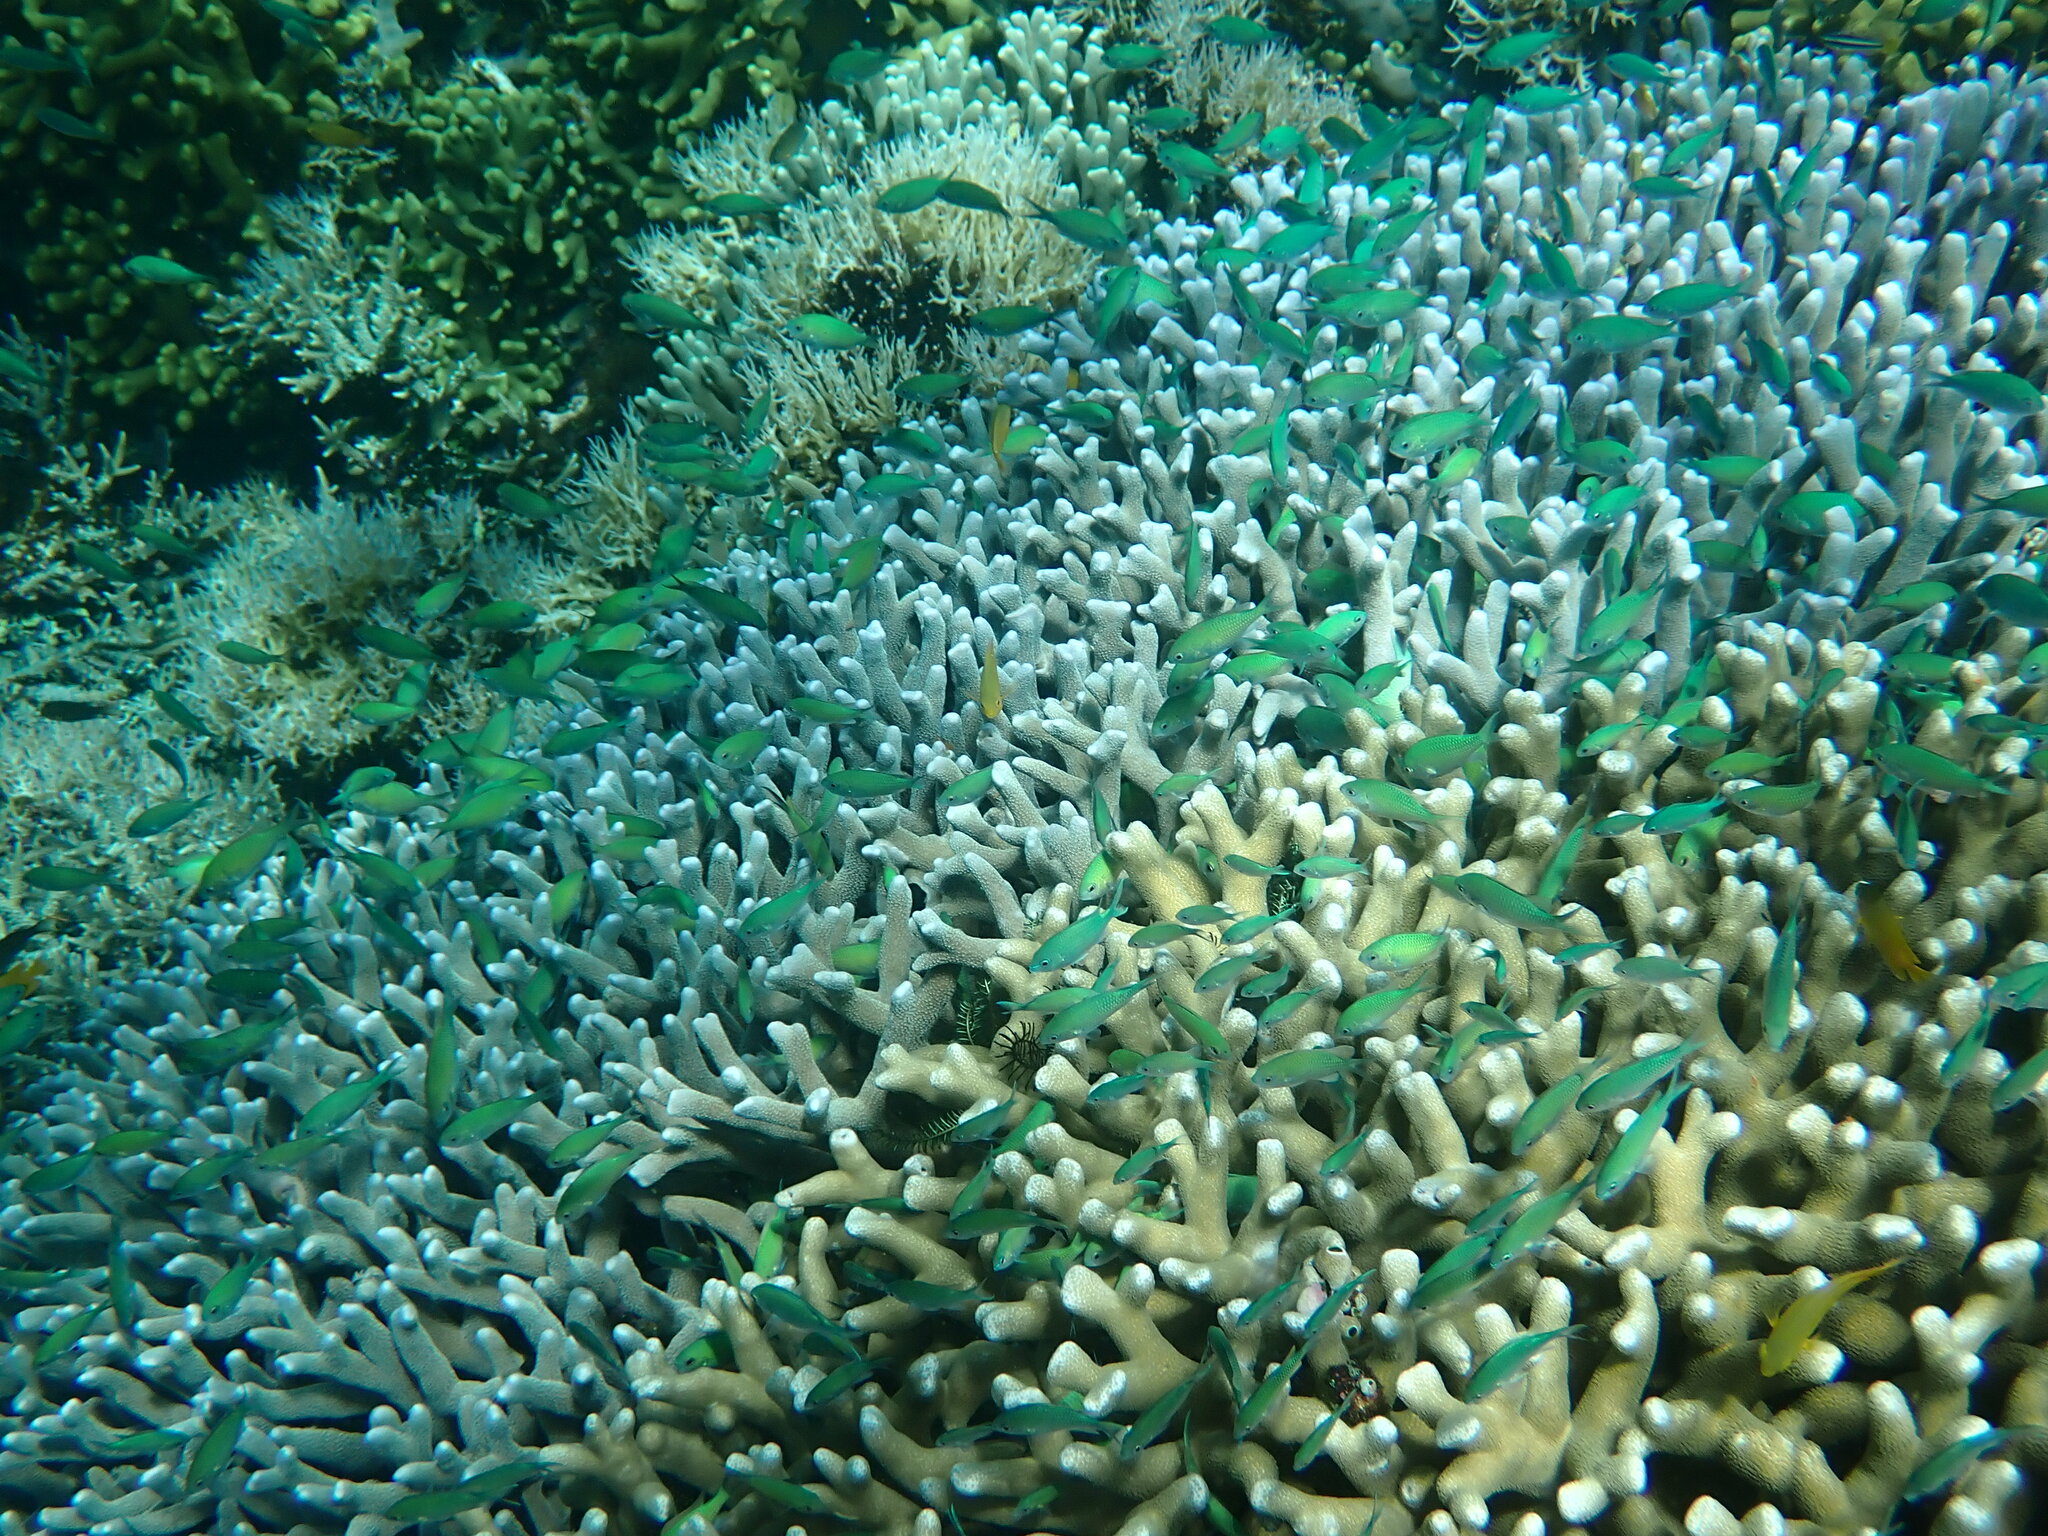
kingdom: Animalia
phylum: Chordata
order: Perciformes
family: Pomacentridae
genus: Chromis
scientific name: Chromis viridis
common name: Blue-green chromis
